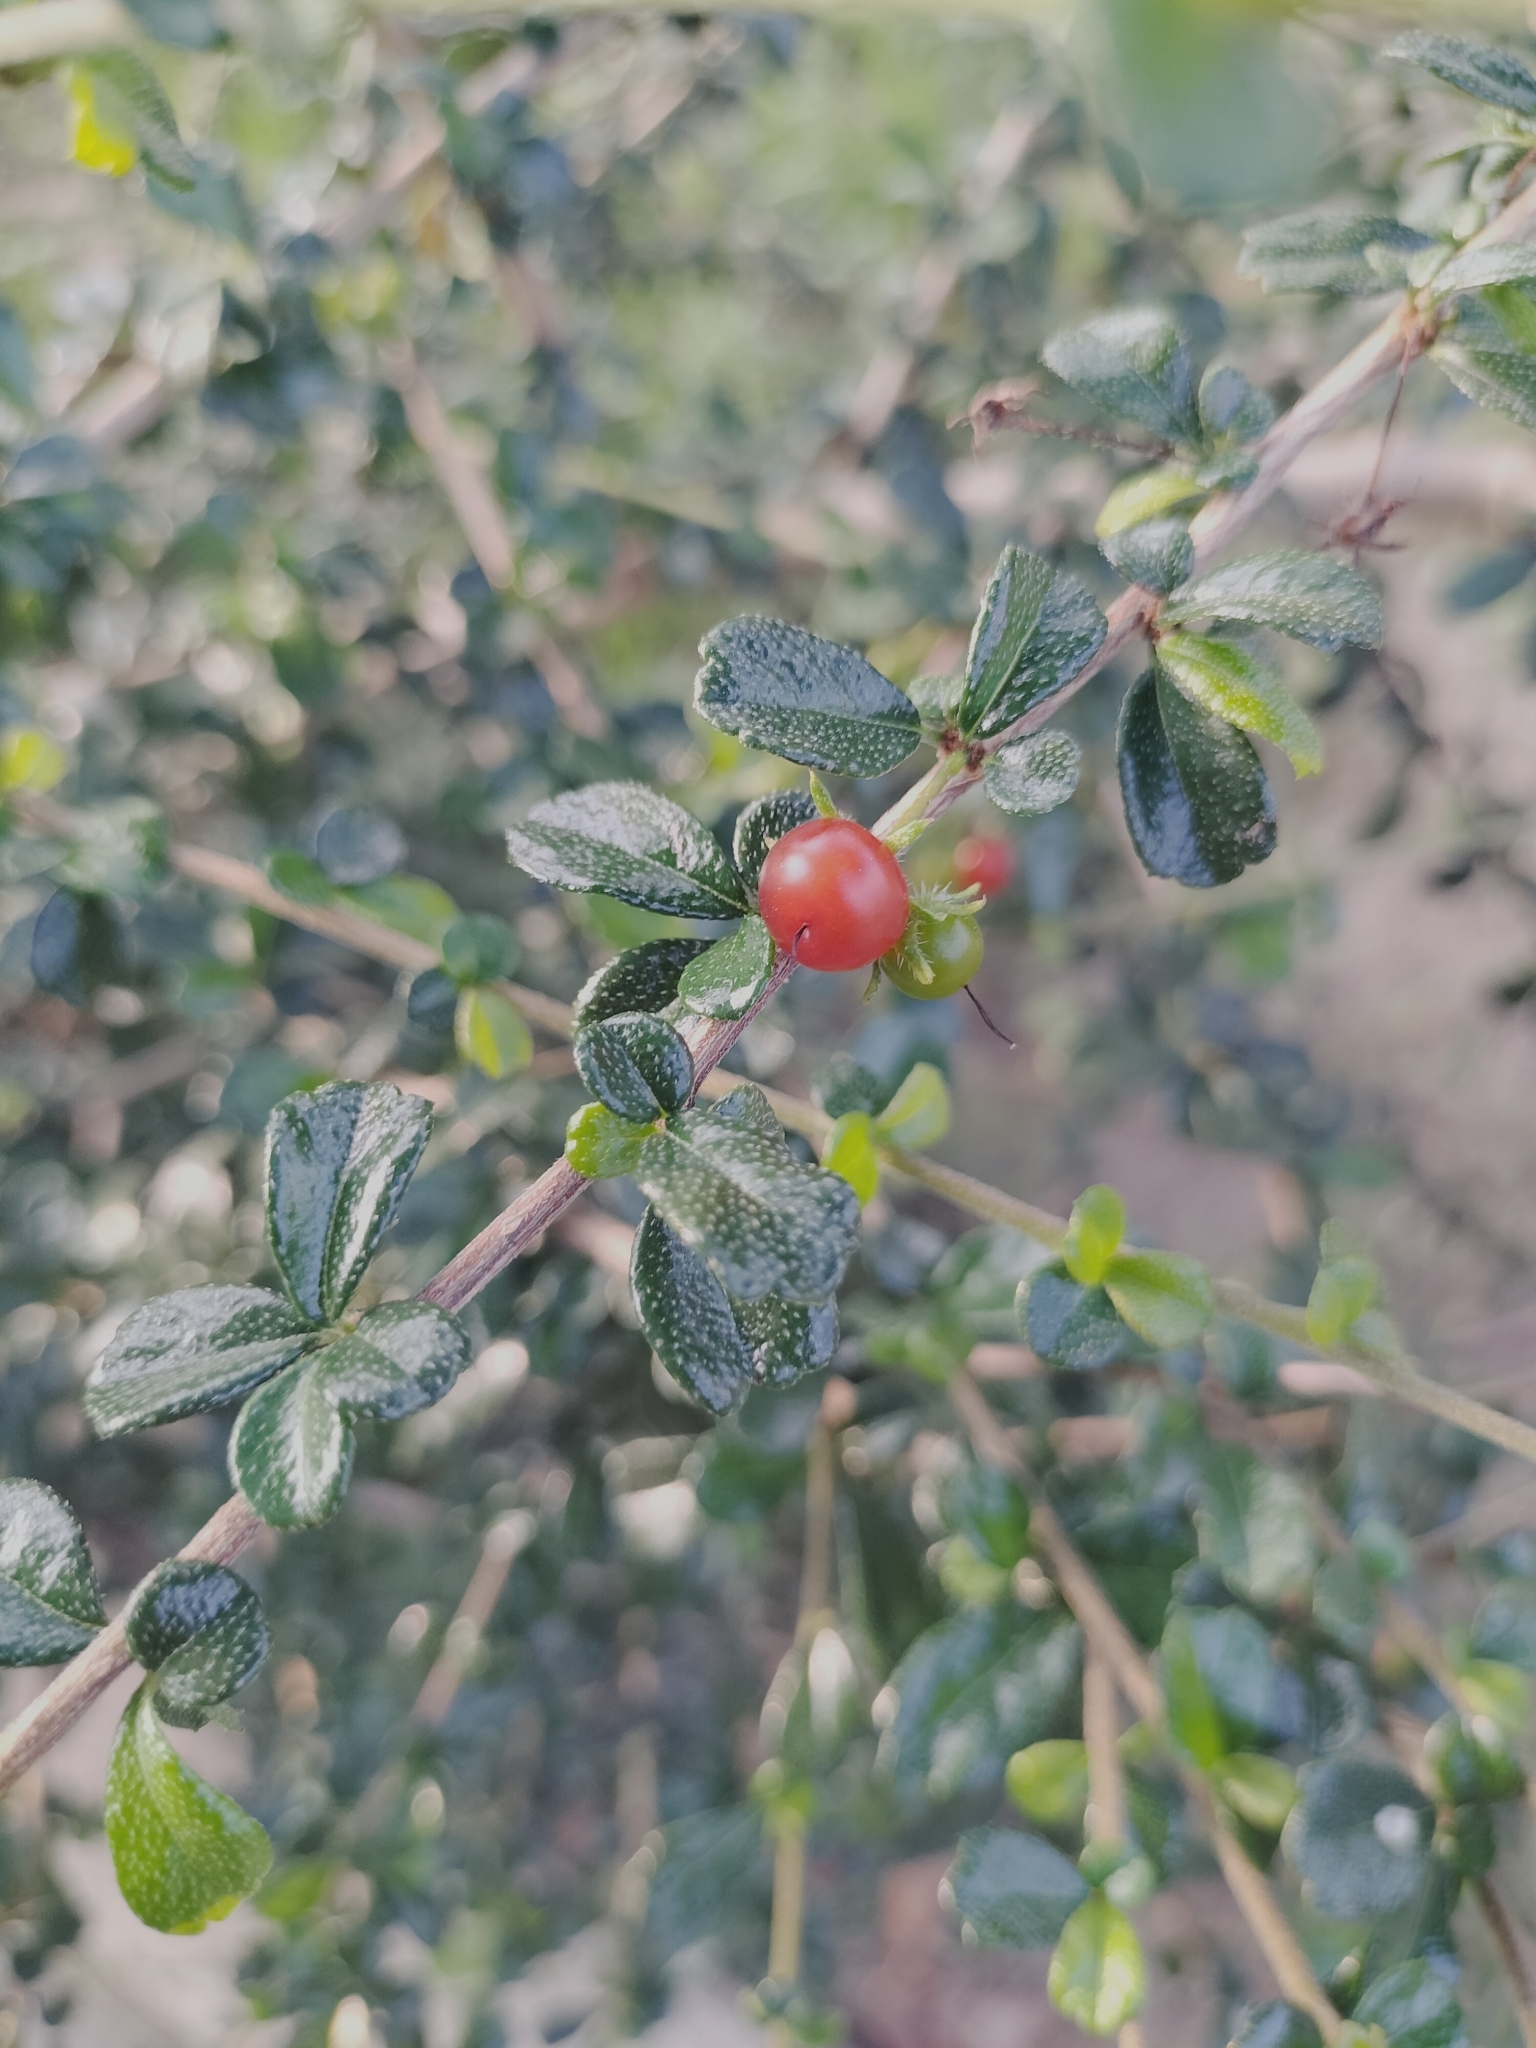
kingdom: Plantae
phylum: Tracheophyta
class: Magnoliopsida
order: Boraginales
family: Ehretiaceae
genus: Ehretia
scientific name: Ehretia microphylla
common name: Fukien-tea
